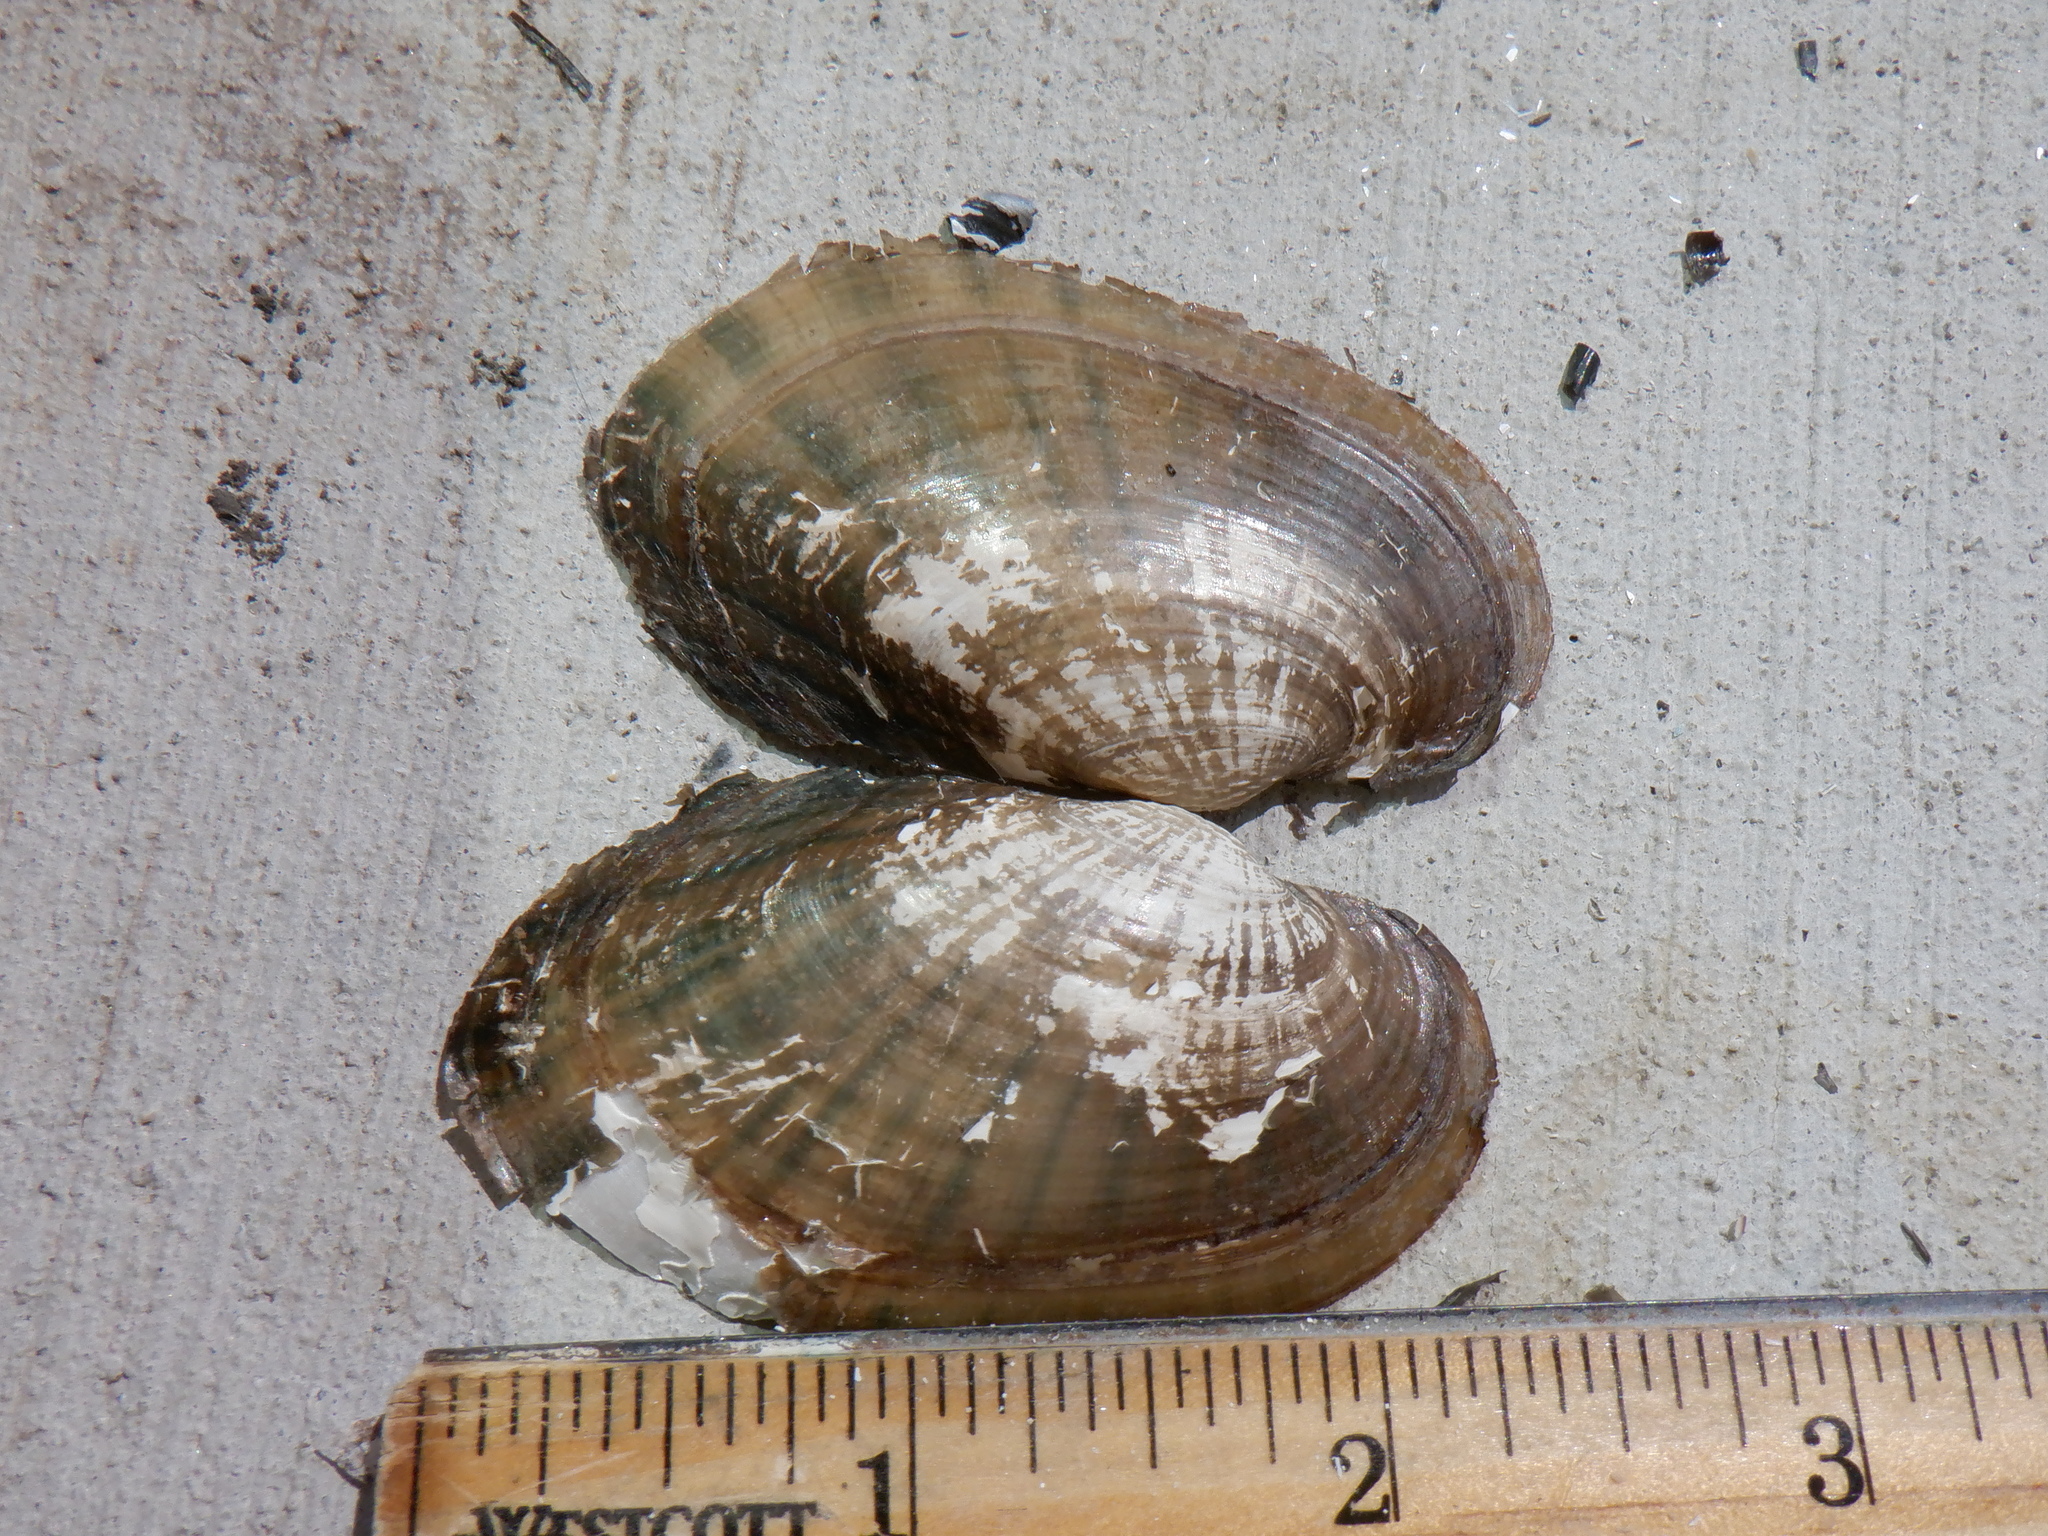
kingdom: Animalia
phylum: Mollusca
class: Bivalvia
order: Unionida
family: Unionidae
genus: Lampsilis
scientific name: Lampsilis siliquoidea
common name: Fatmucket
